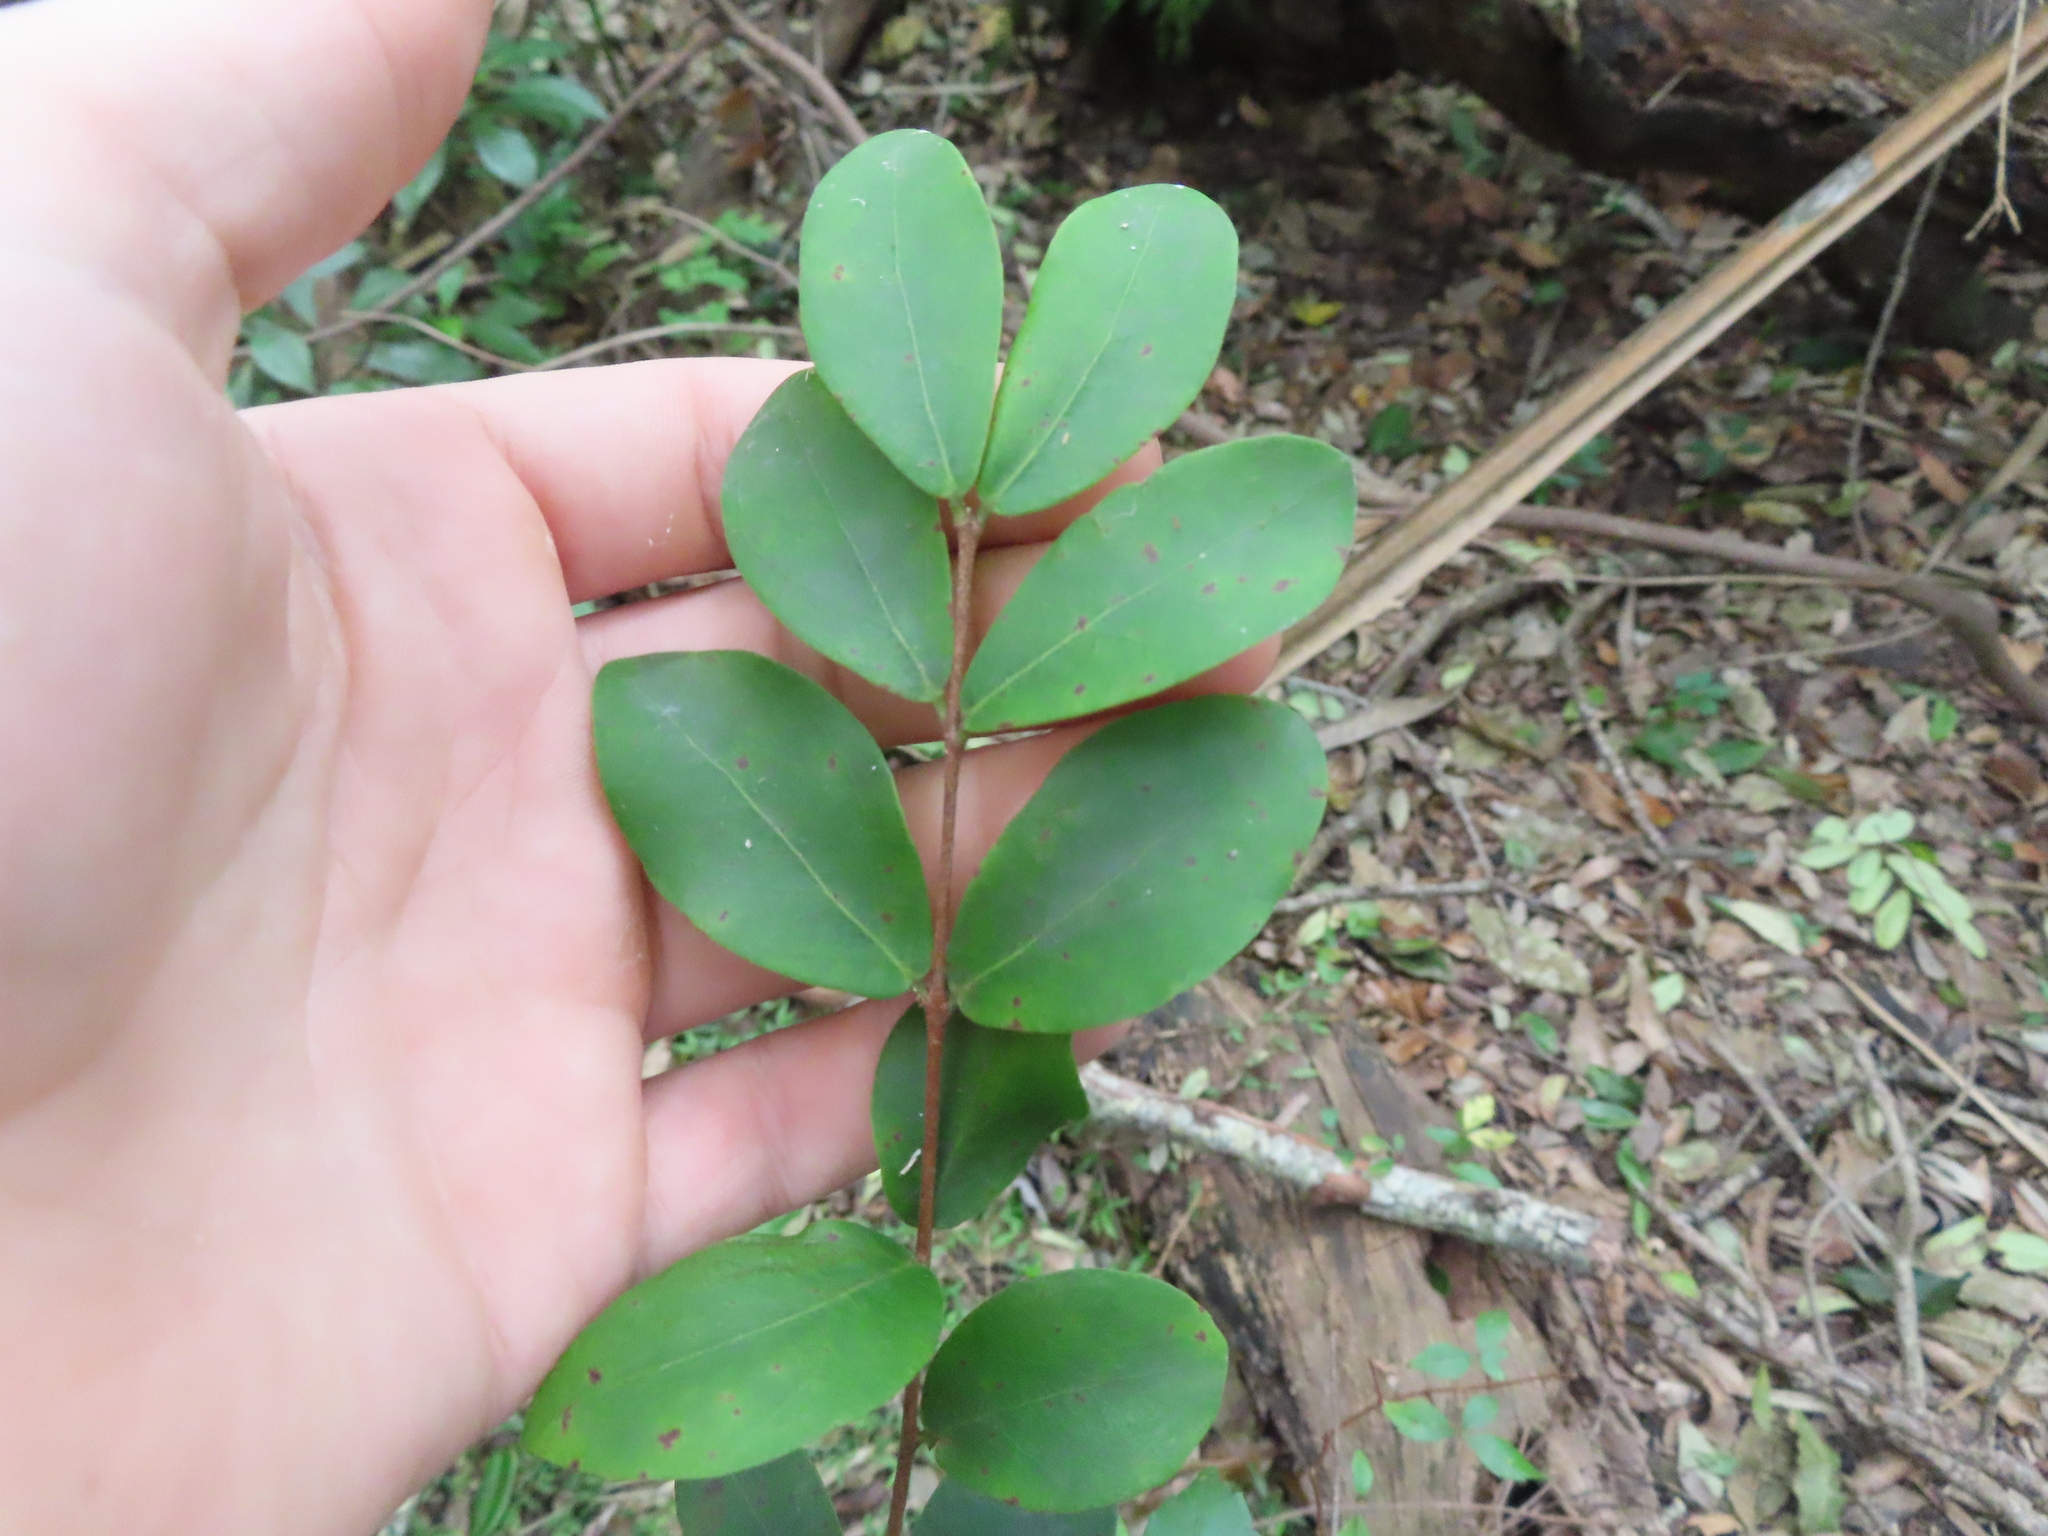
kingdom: Plantae
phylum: Tracheophyta
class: Magnoliopsida
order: Myrtales
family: Myrtaceae
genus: Eugenia
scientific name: Eugenia foetida
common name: White wattling
